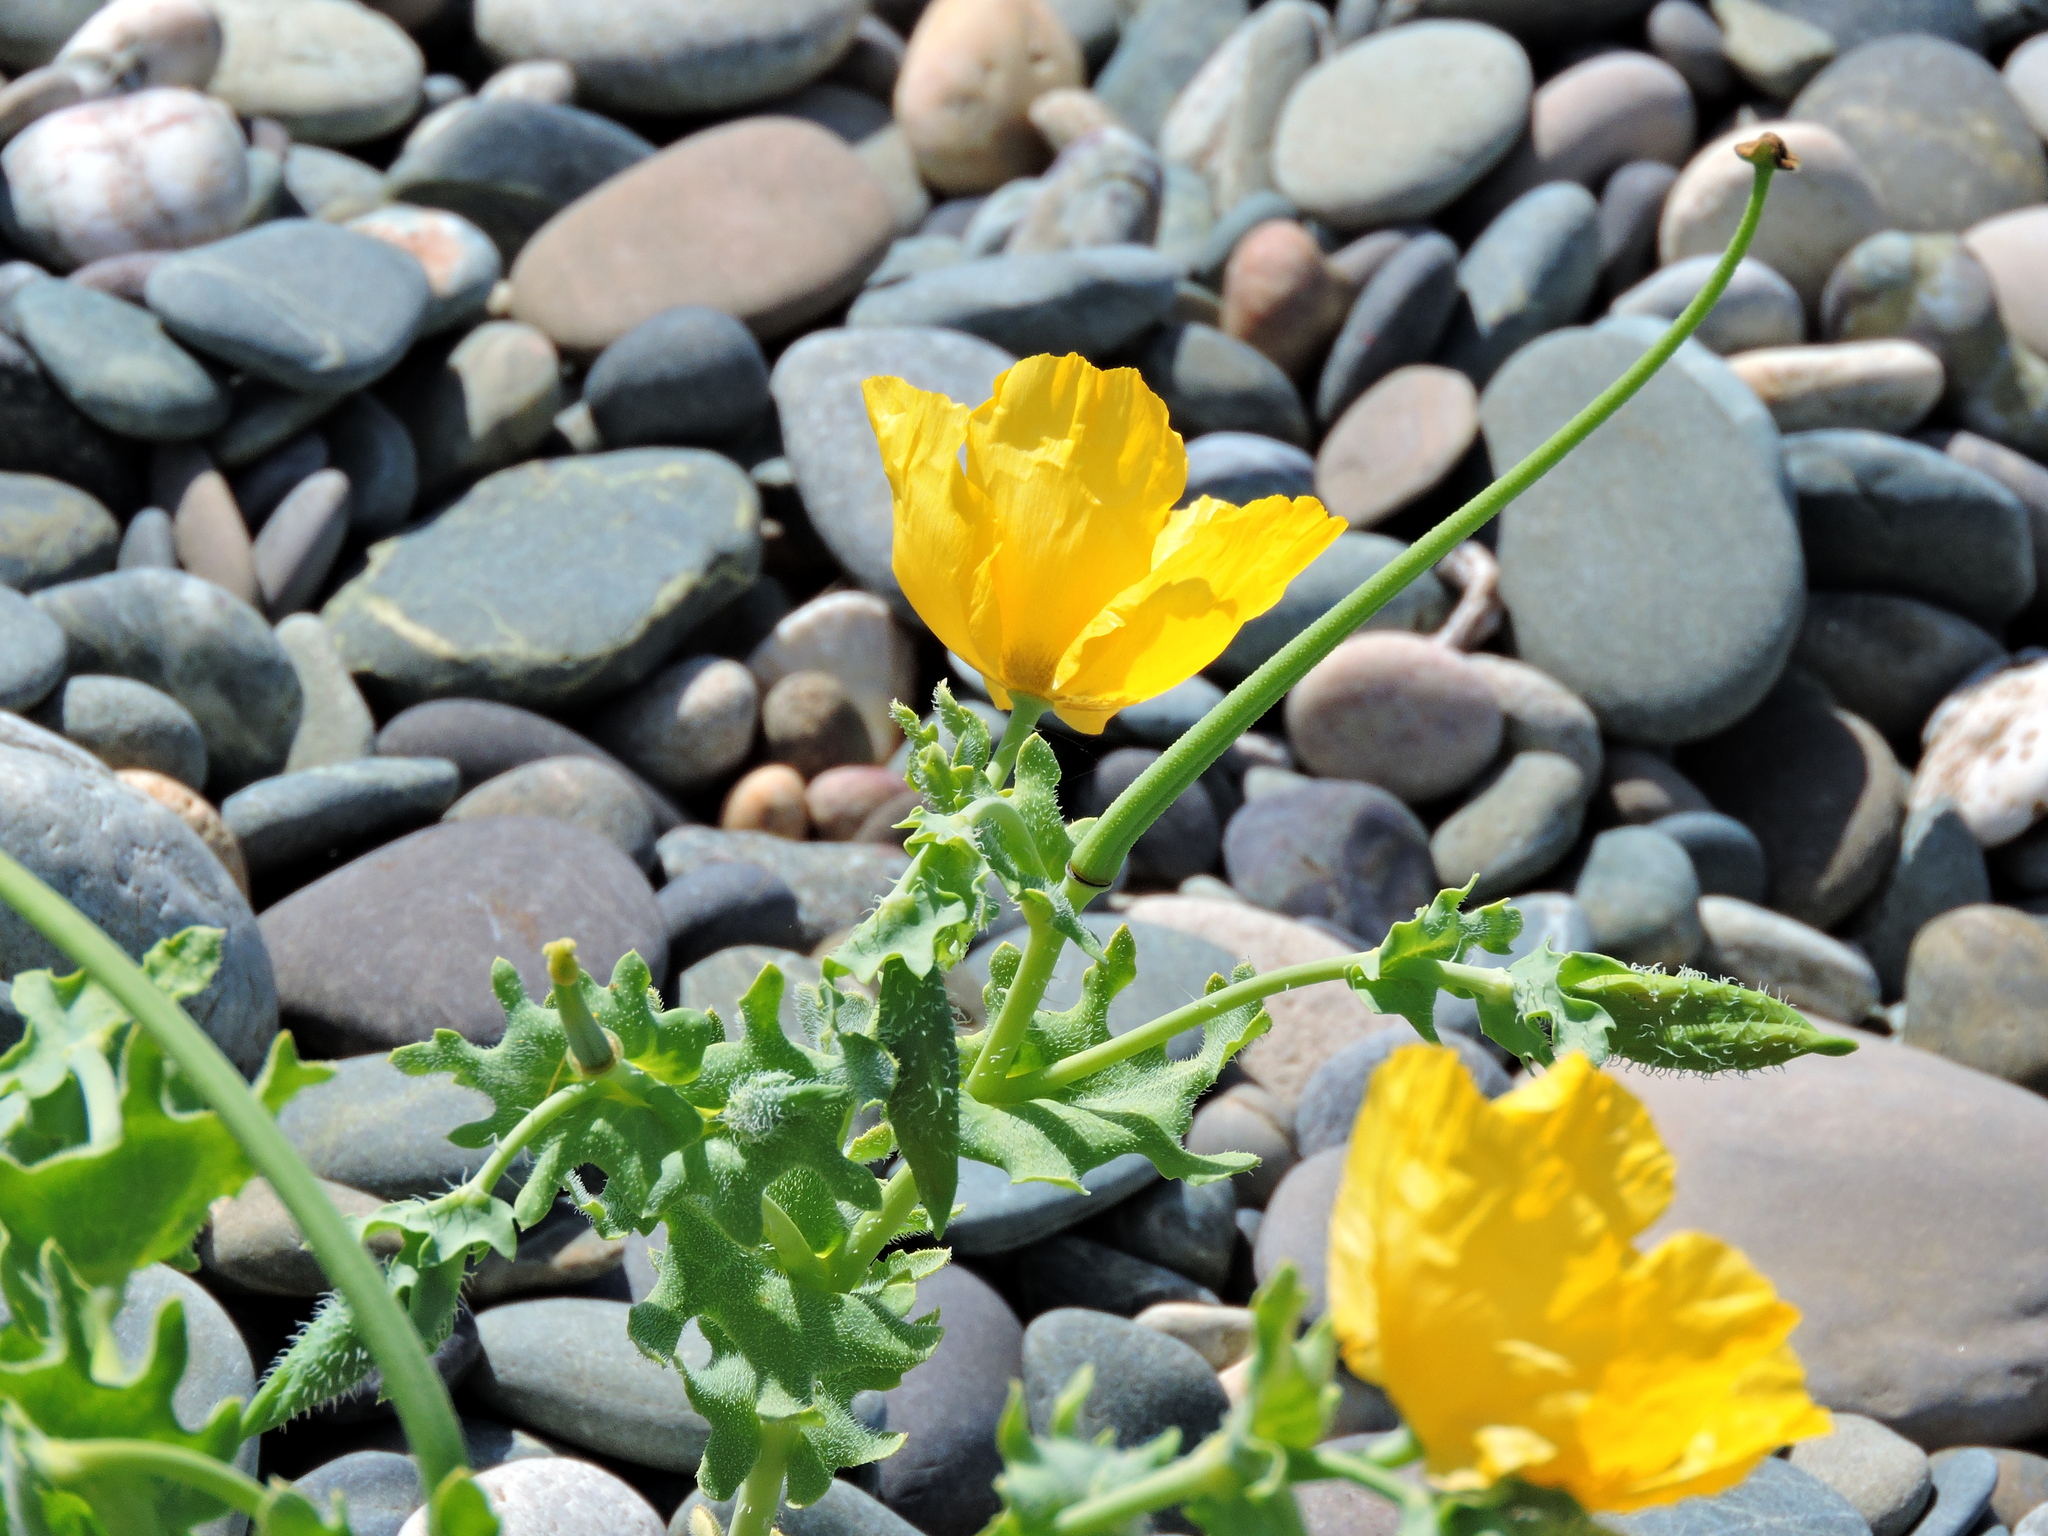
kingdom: Plantae
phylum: Tracheophyta
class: Magnoliopsida
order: Ranunculales
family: Papaveraceae
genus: Glaucium
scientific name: Glaucium flavum
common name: Yellow horned-poppy
